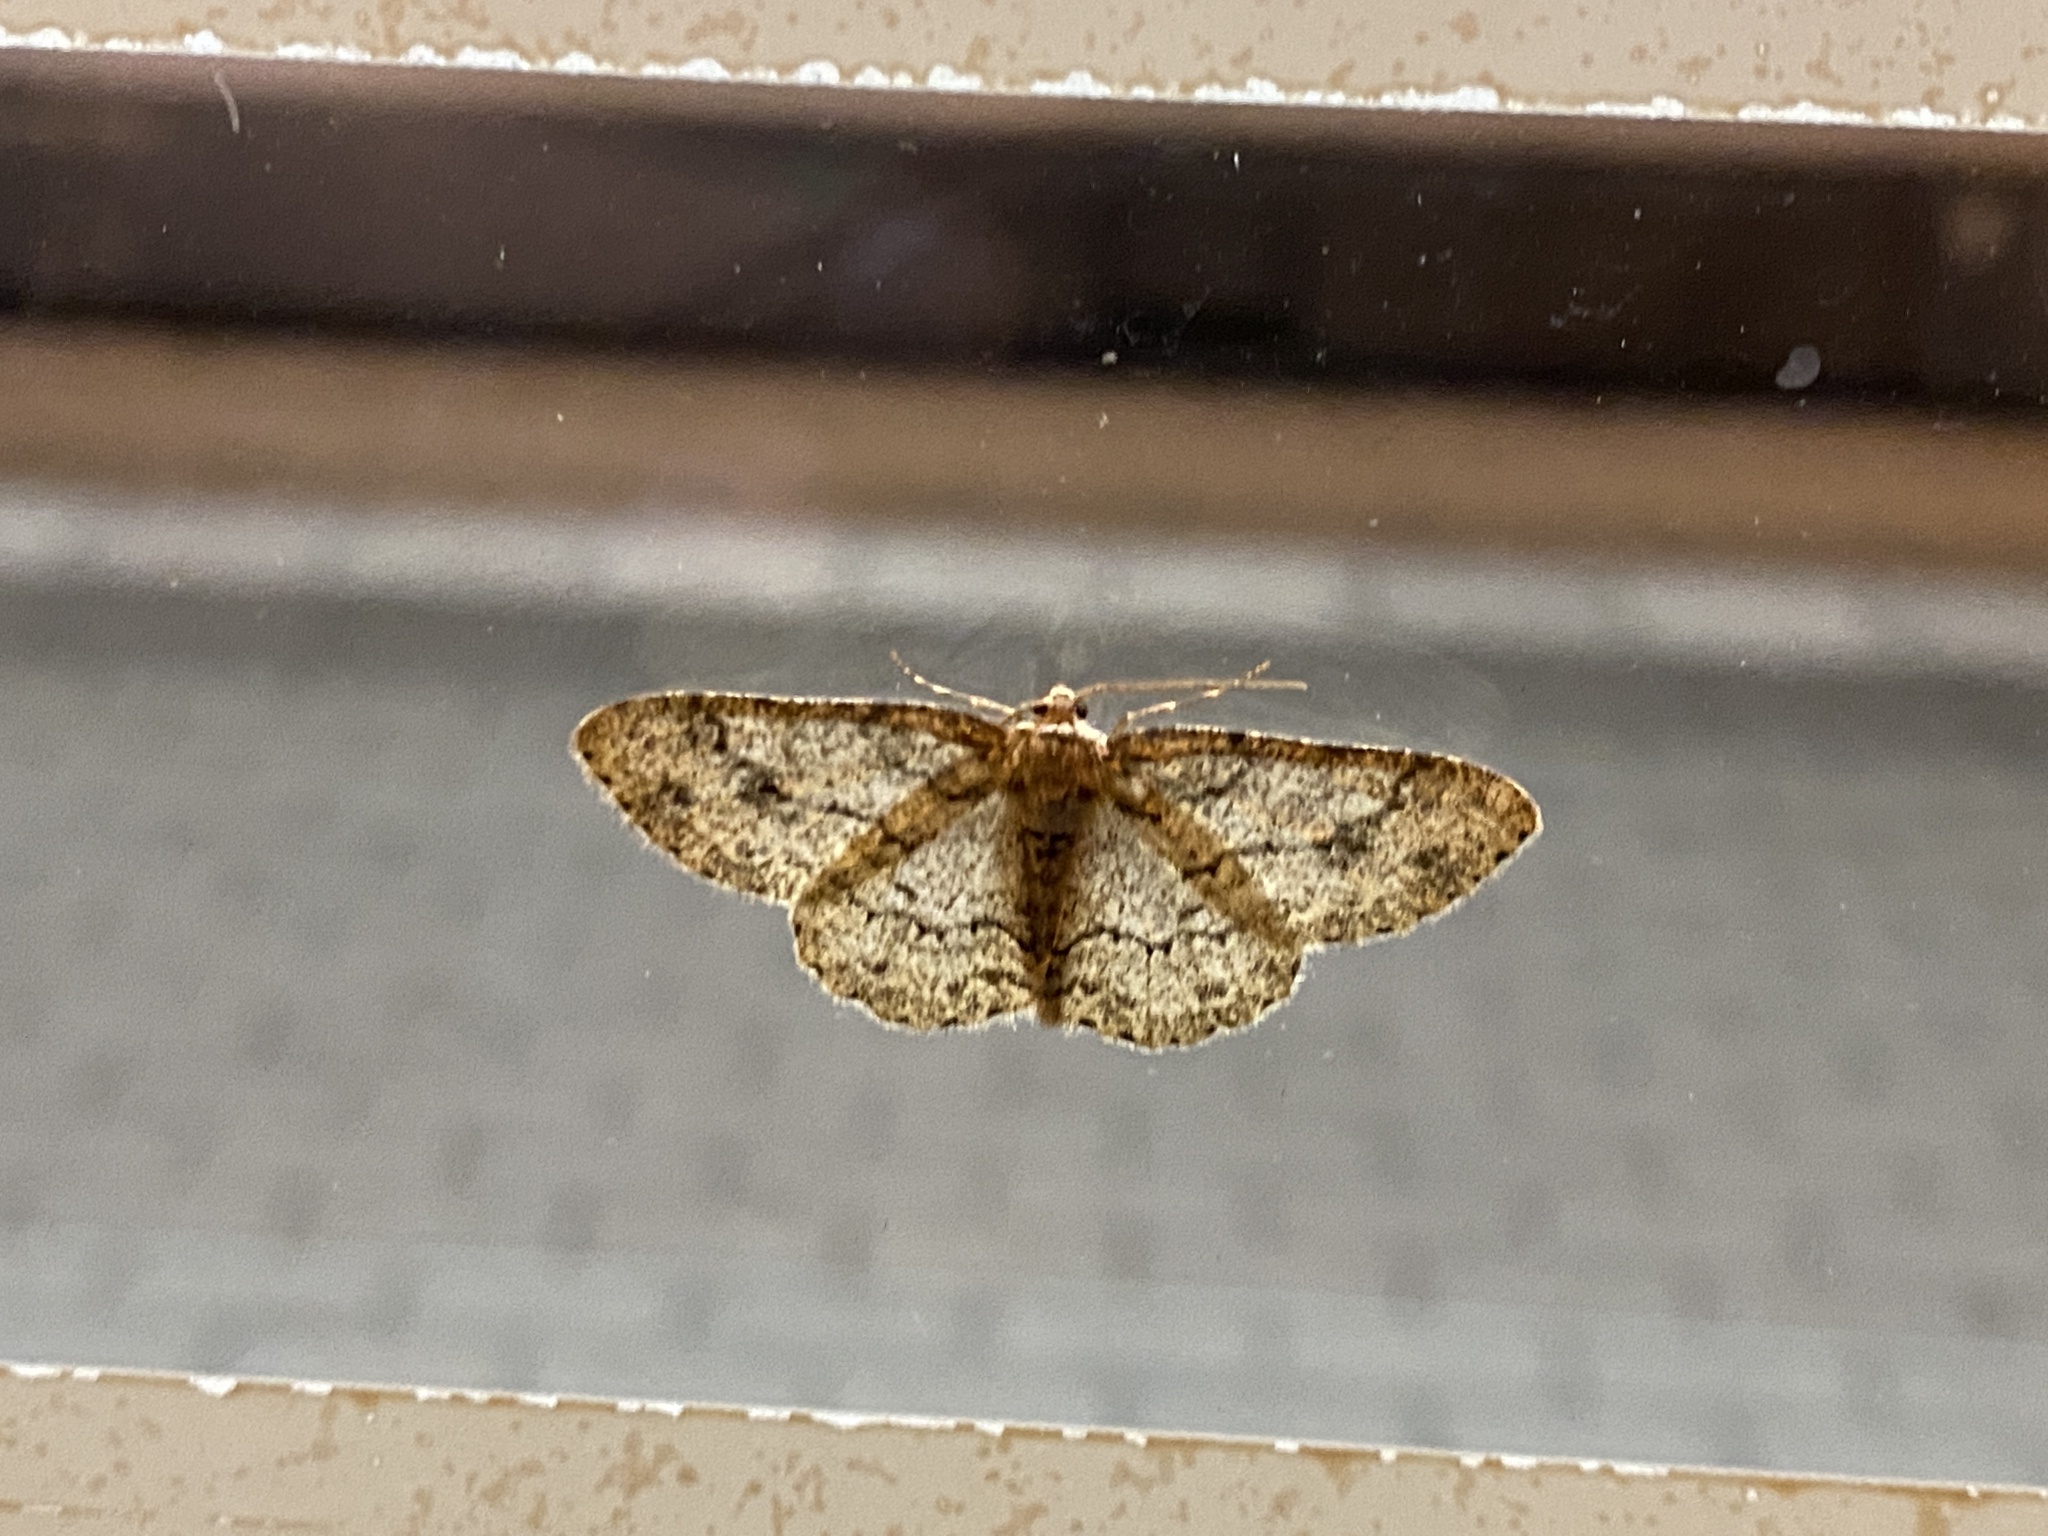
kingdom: Animalia
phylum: Arthropoda
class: Insecta
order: Lepidoptera
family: Geometridae
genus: Ectropis
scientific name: Ectropis crepuscularia
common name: Engrailed
